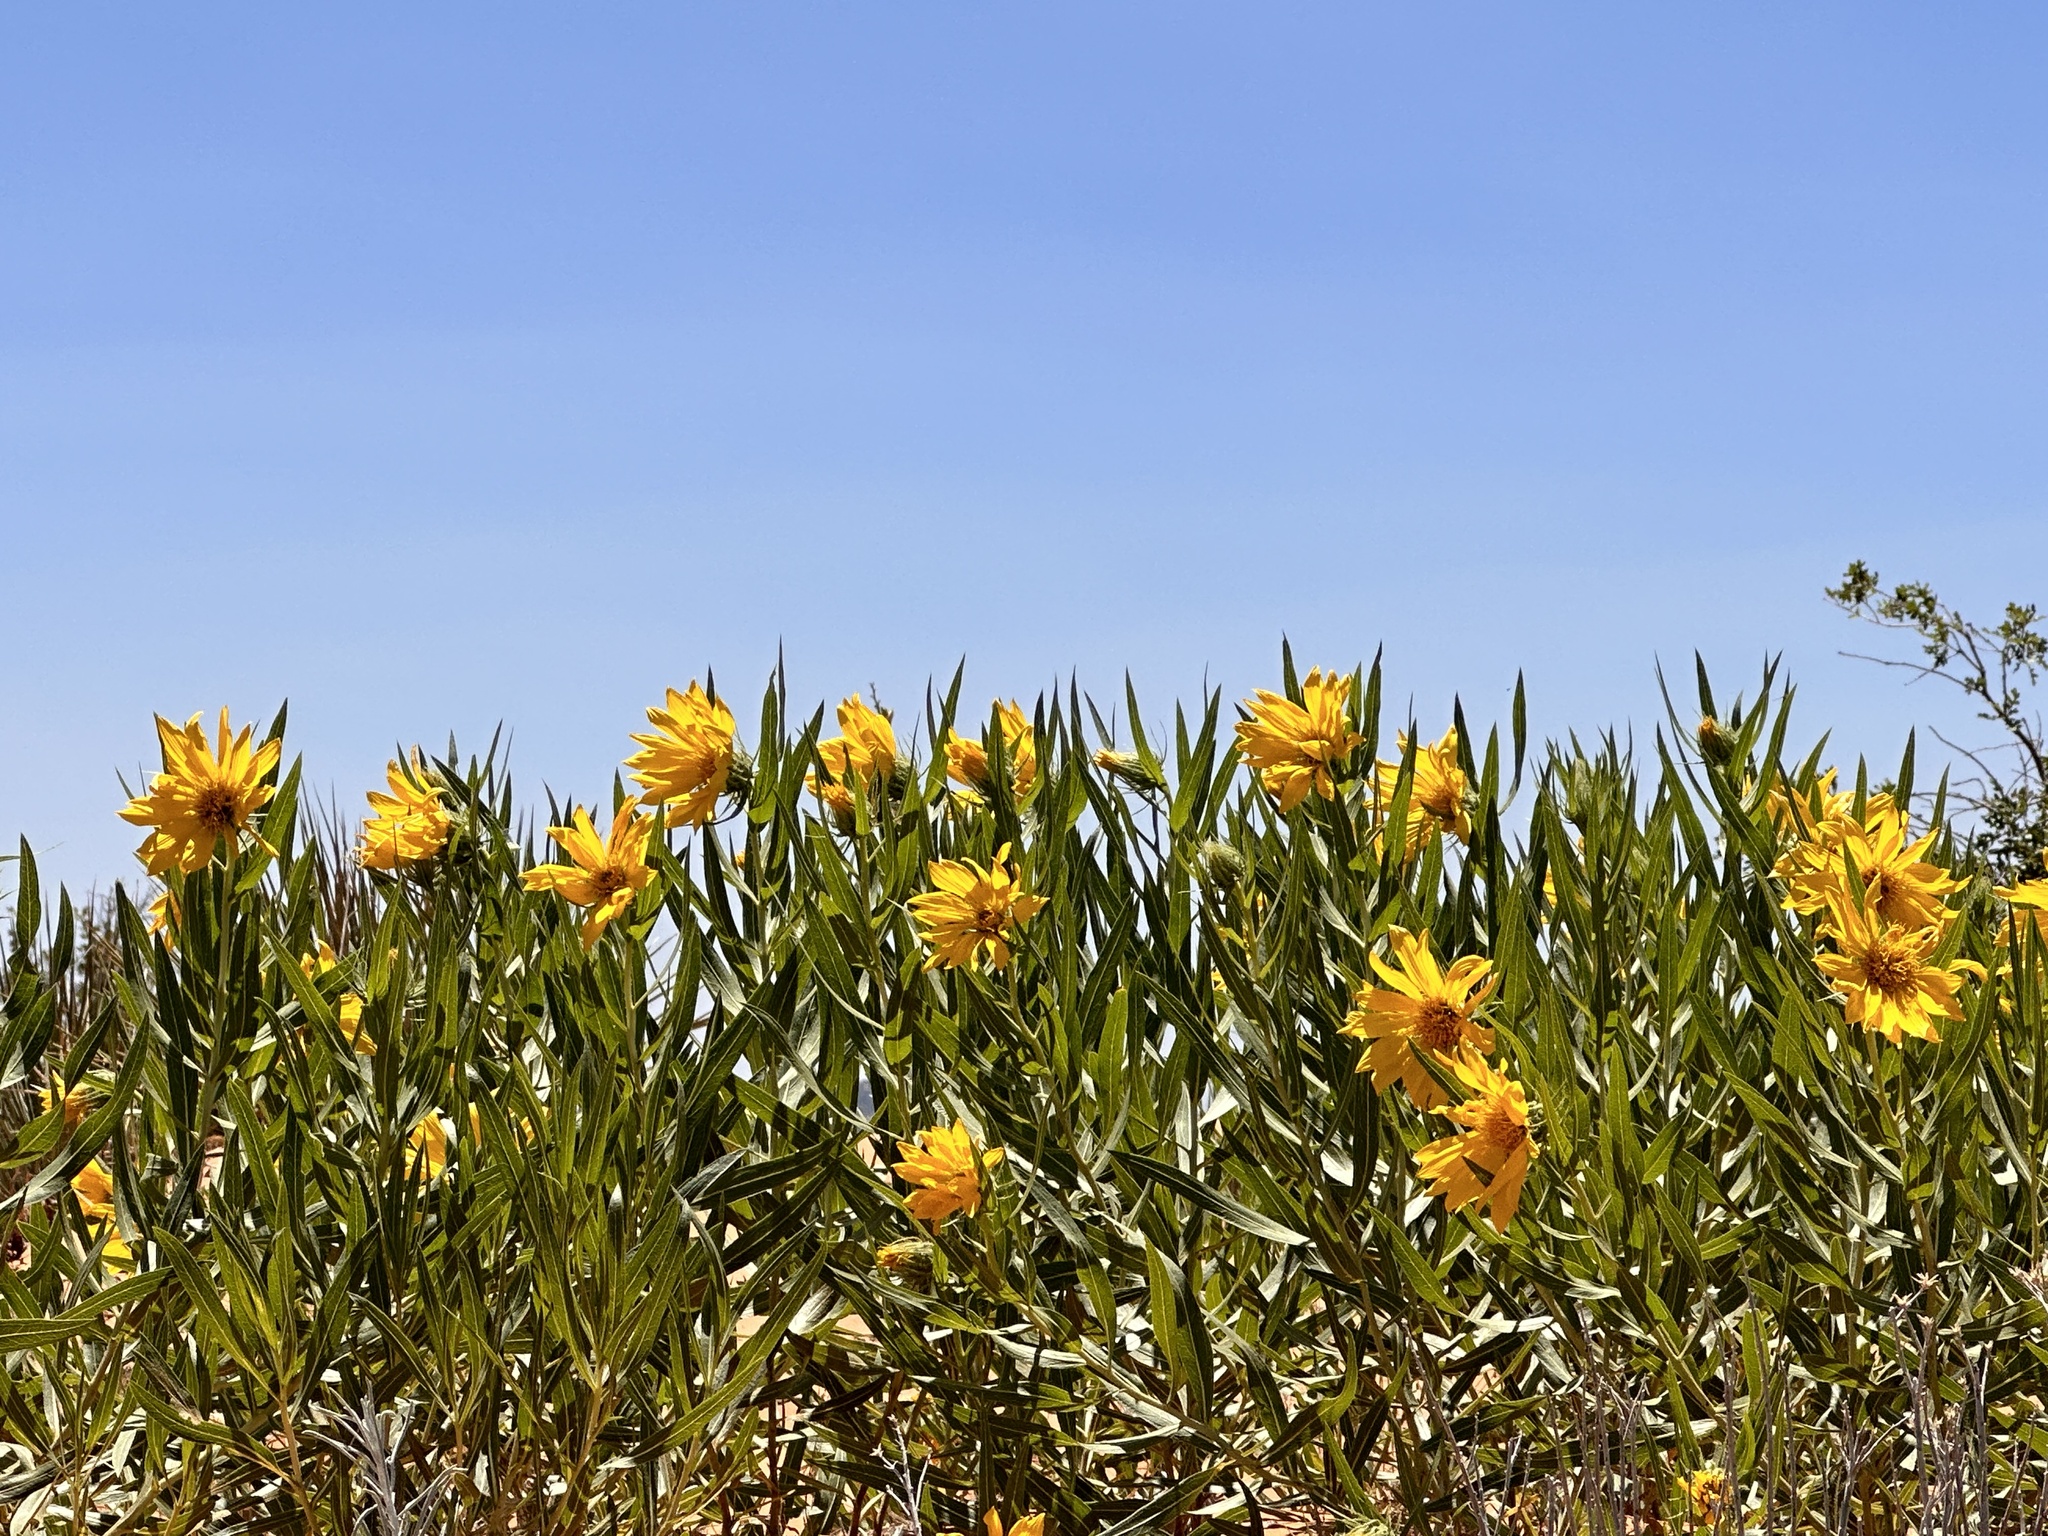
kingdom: Plantae
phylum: Tracheophyta
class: Magnoliopsida
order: Asterales
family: Asteraceae
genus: Scabrethia
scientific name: Scabrethia scabra
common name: Rough mules's-ears
